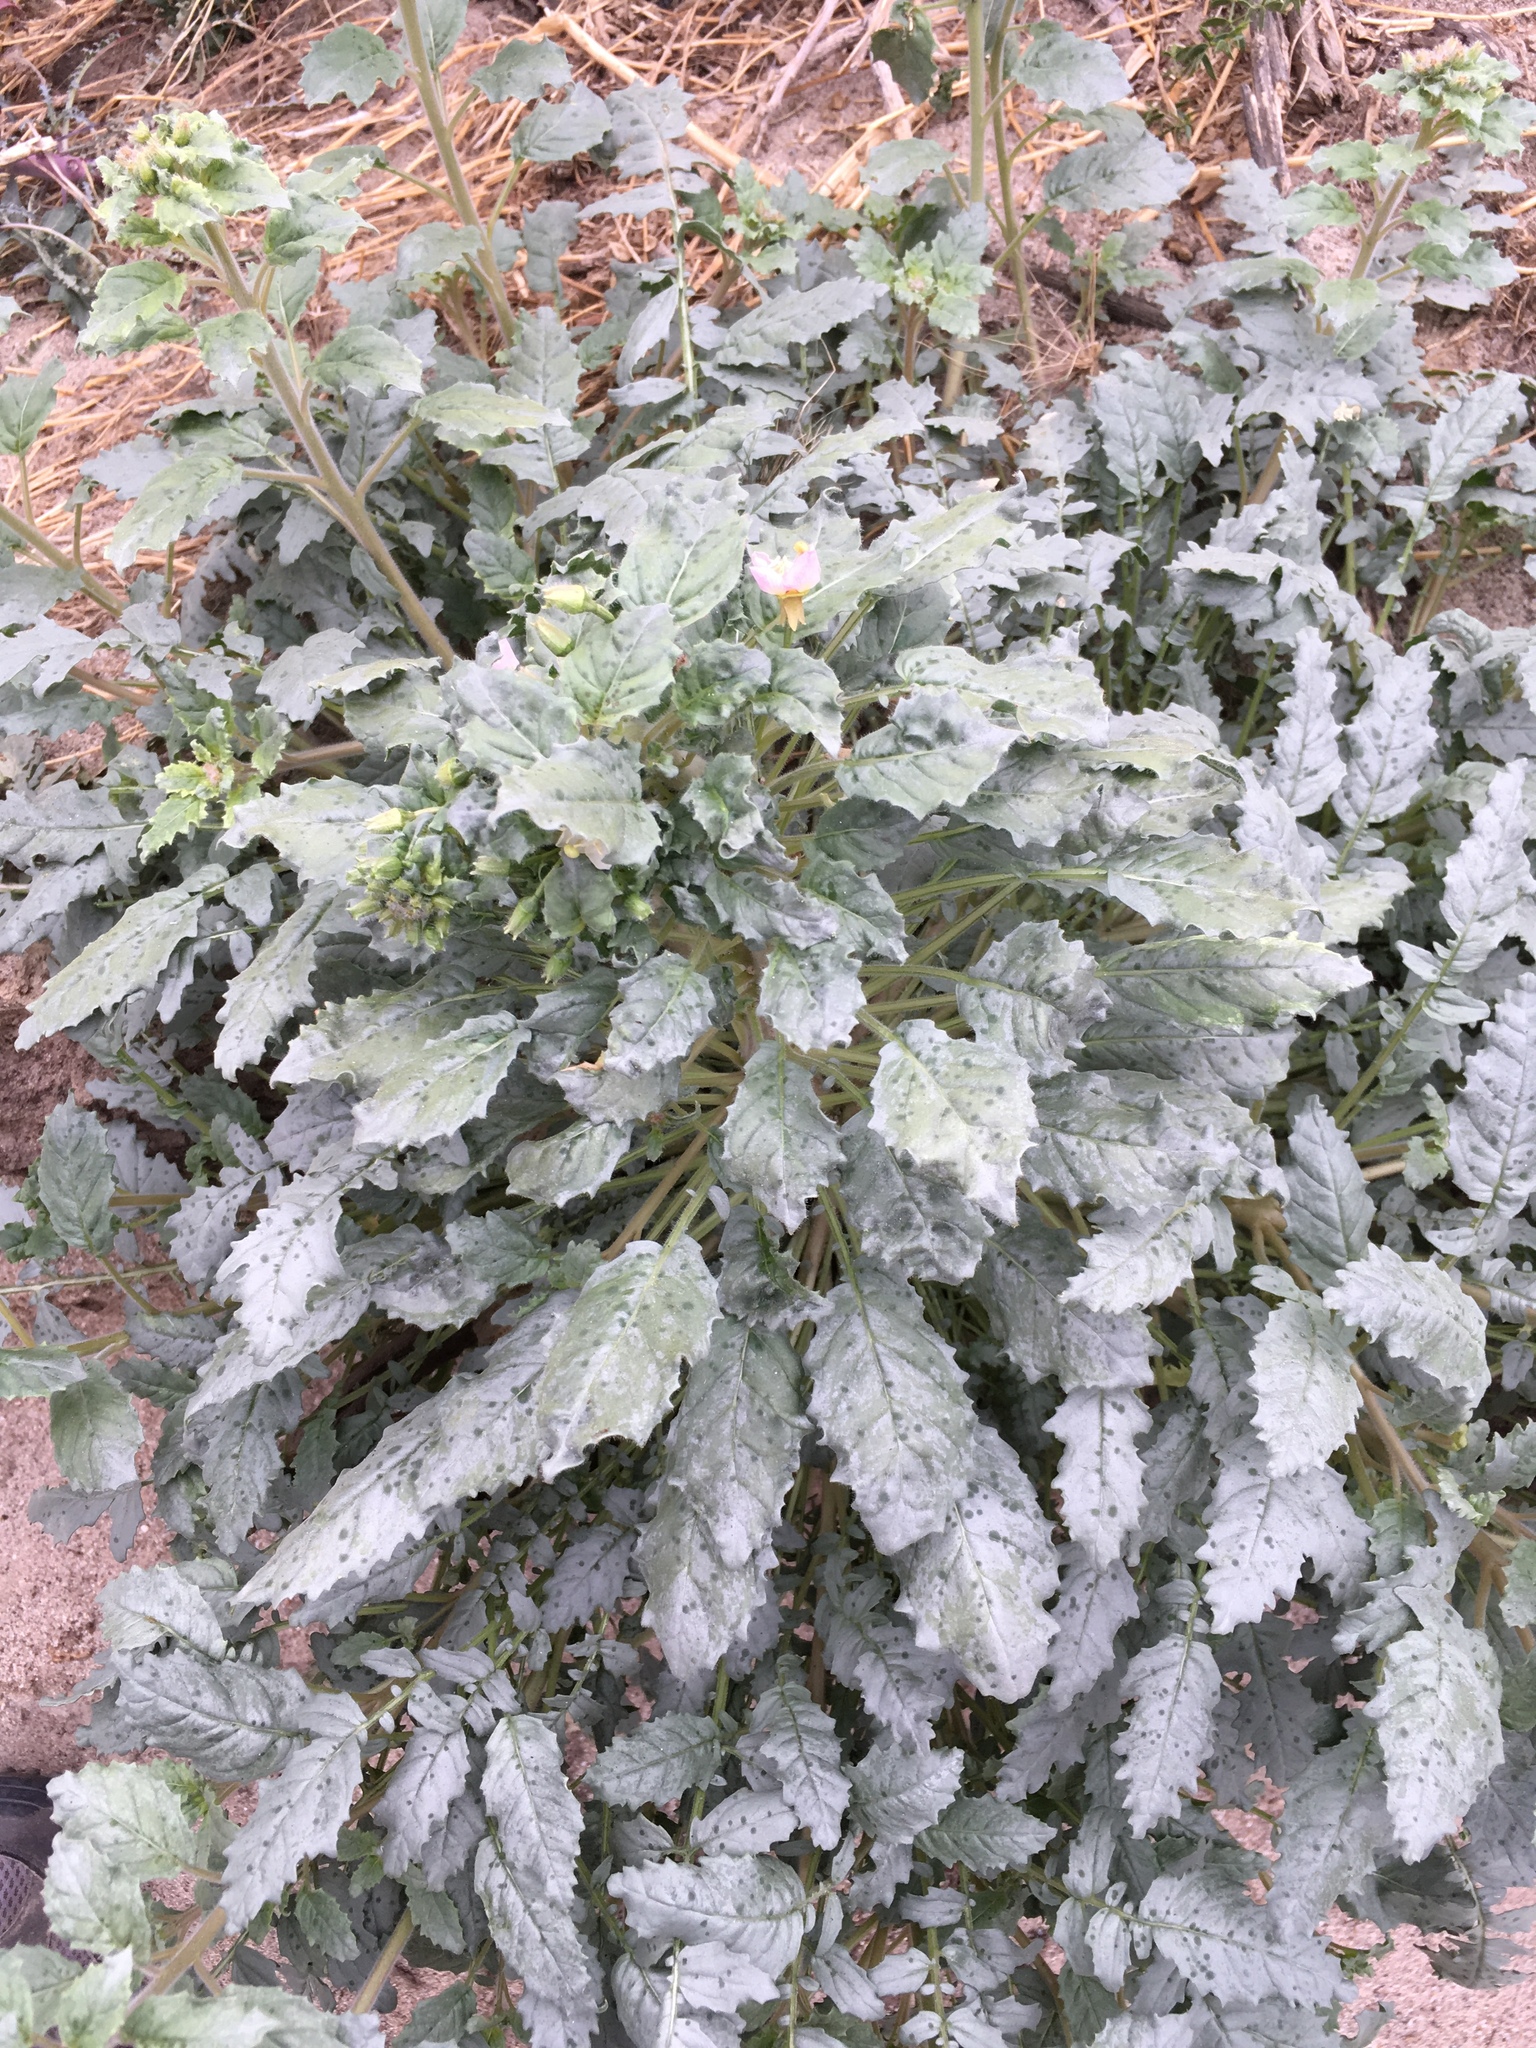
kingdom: Plantae
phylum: Tracheophyta
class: Magnoliopsida
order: Myrtales
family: Onagraceae
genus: Chylismia
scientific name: Chylismia claviformis
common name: Browneyes
